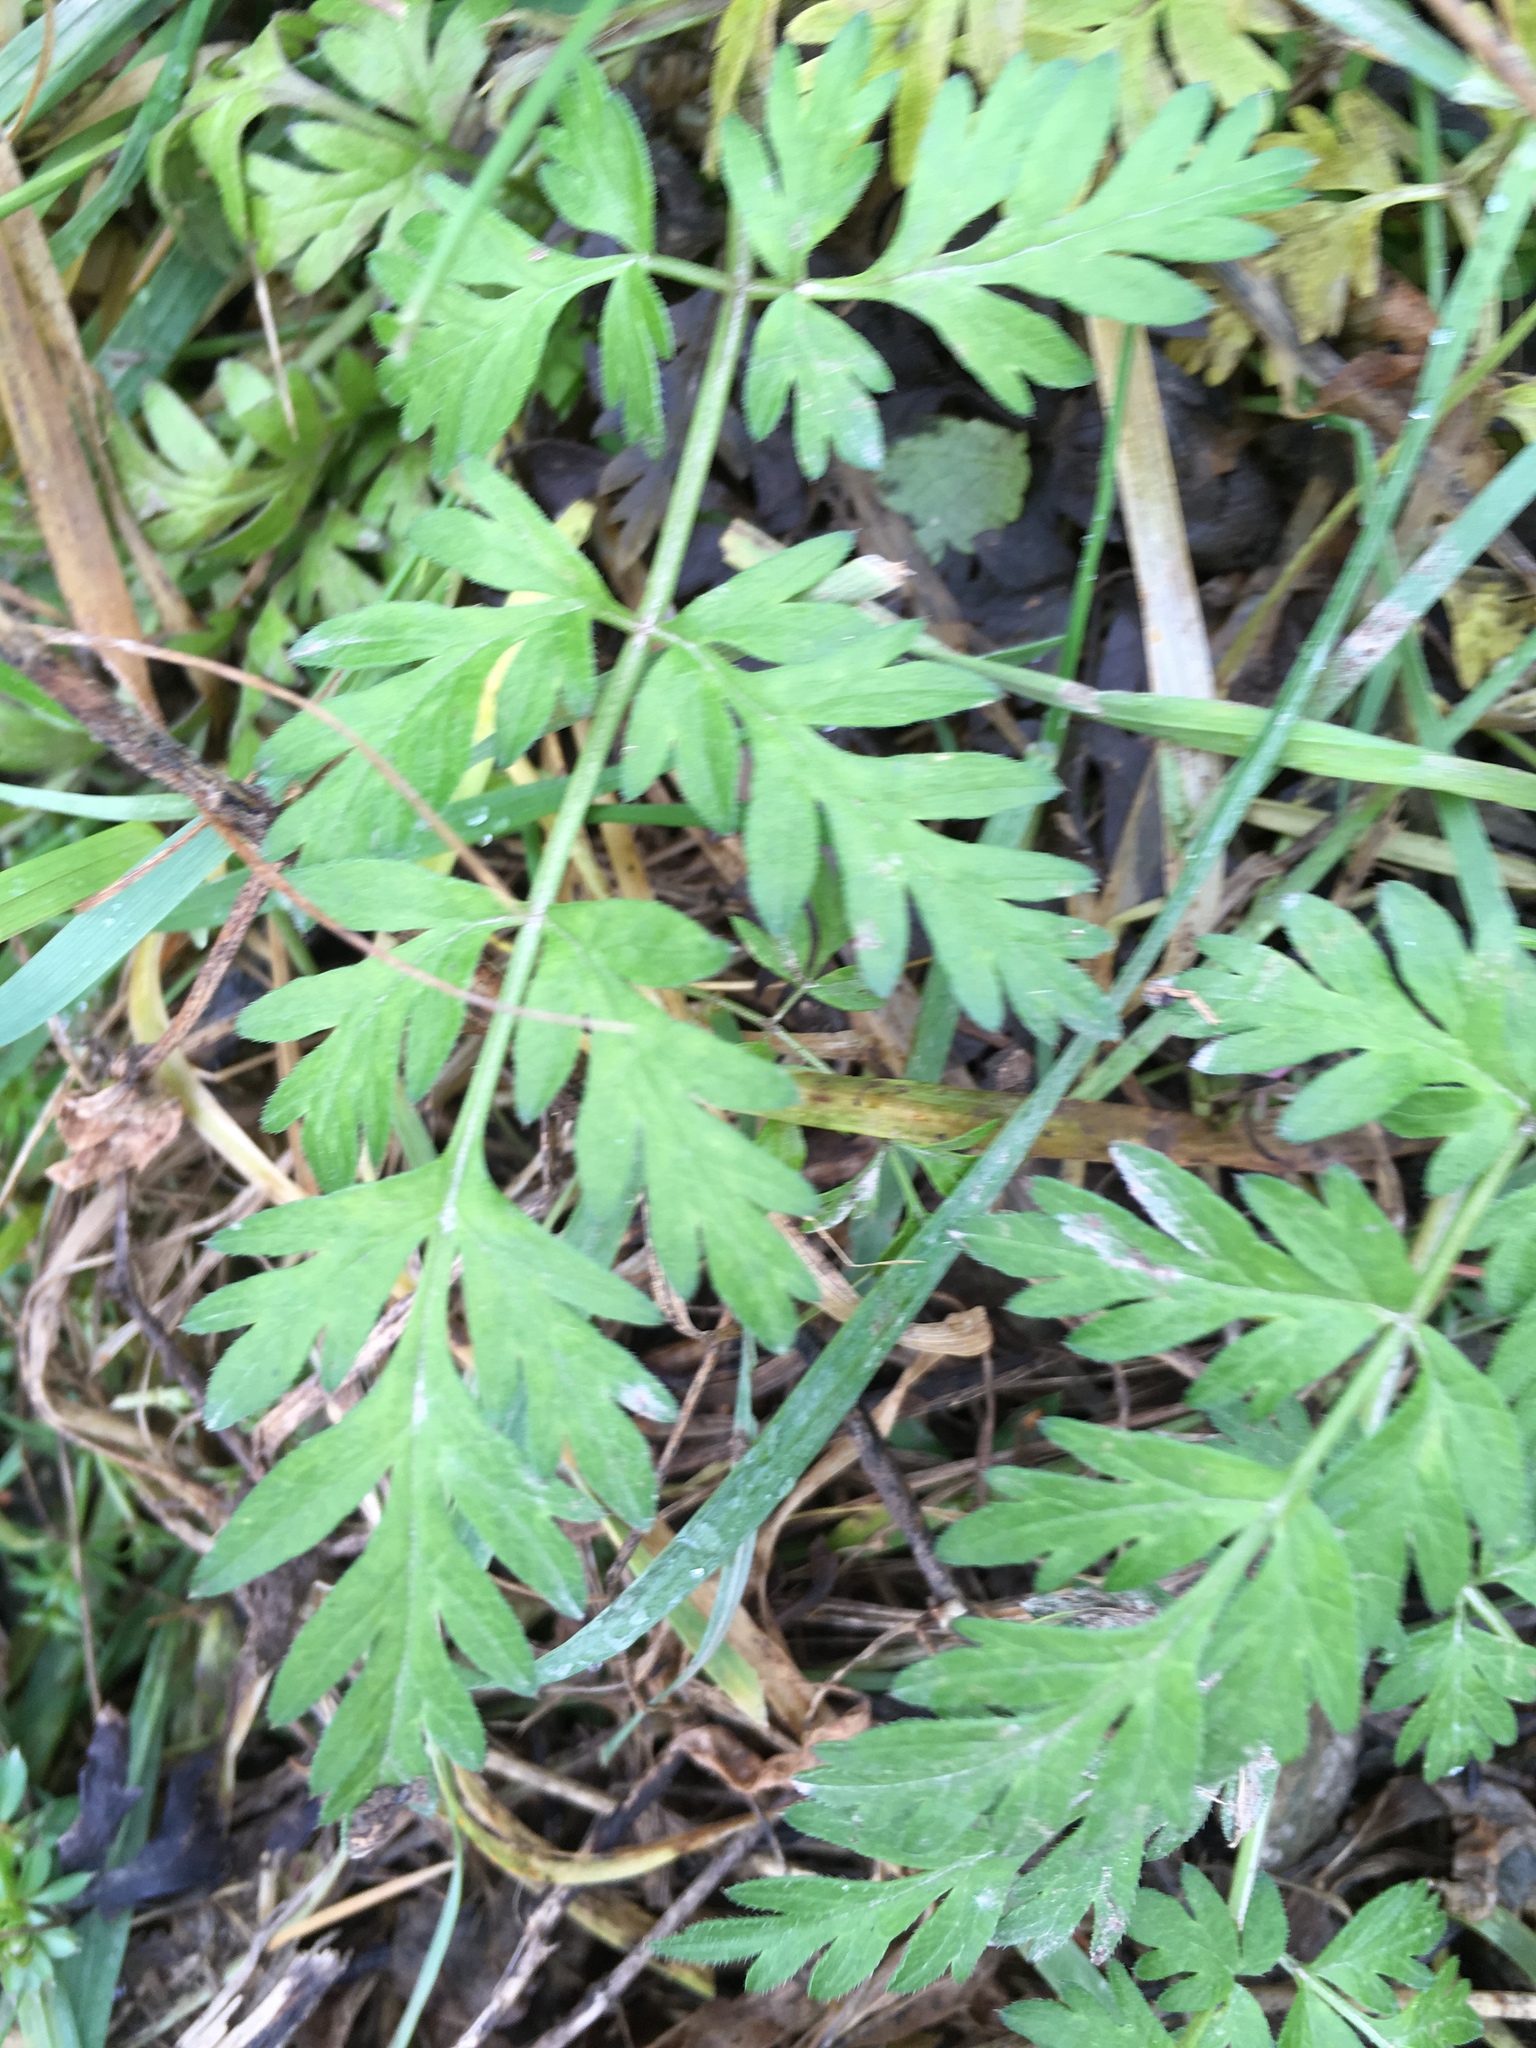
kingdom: Plantae
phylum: Tracheophyta
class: Magnoliopsida
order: Apiales
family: Apiaceae
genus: Daucus
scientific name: Daucus carota
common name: Wild carrot
